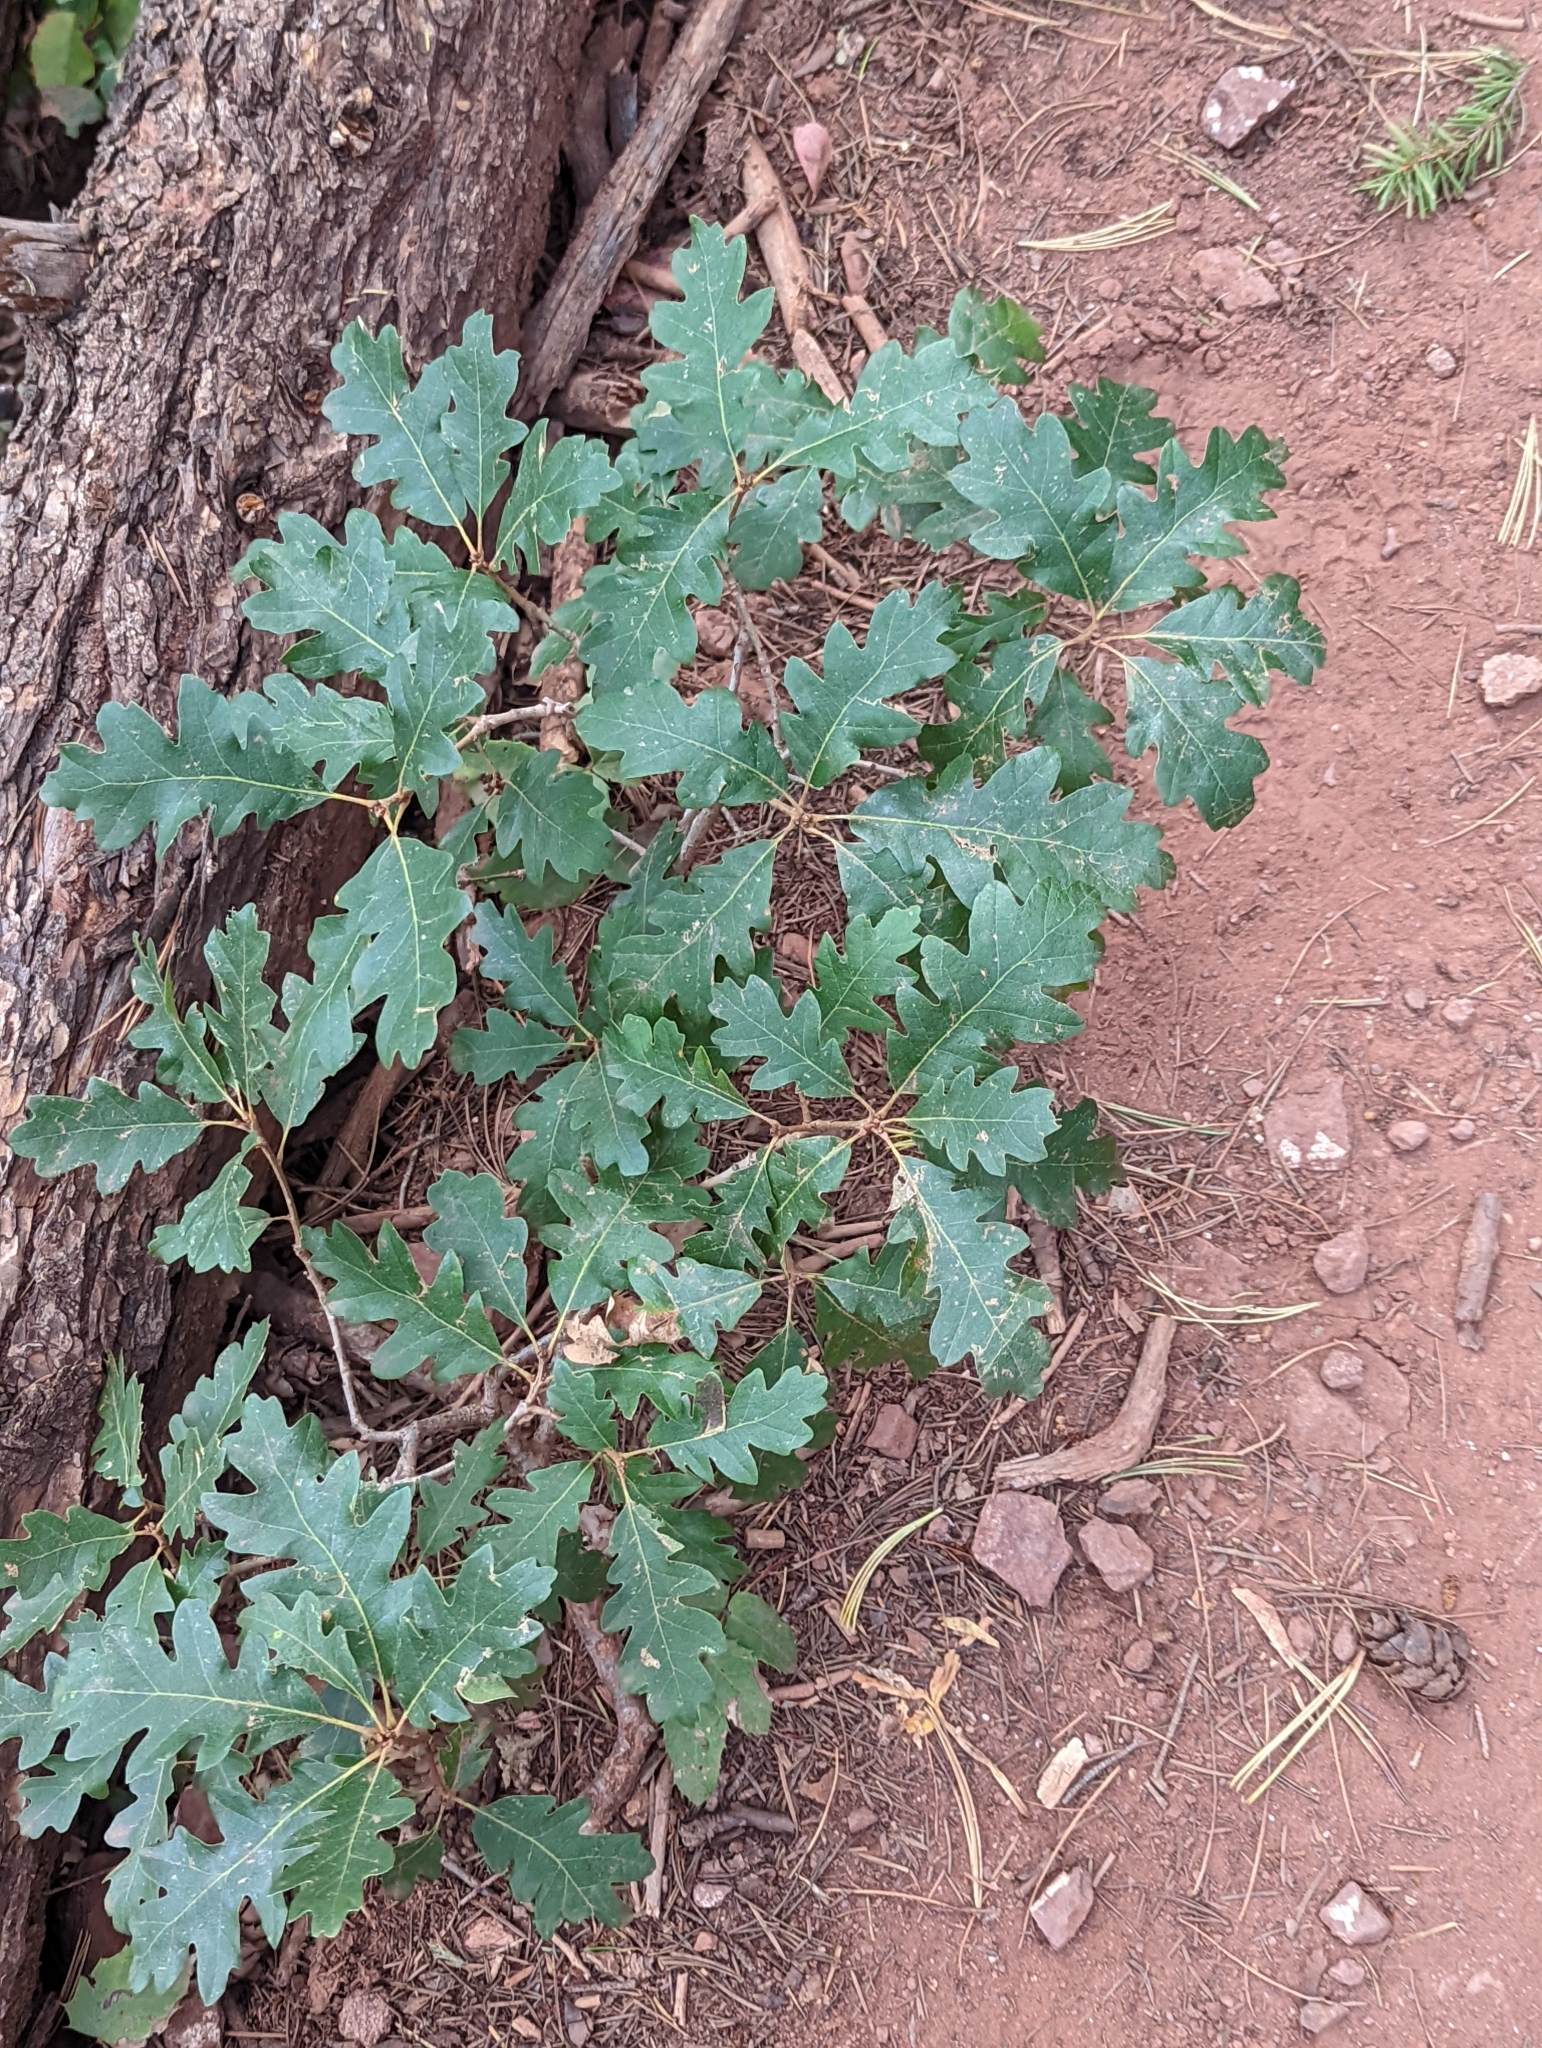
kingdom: Plantae
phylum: Tracheophyta
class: Magnoliopsida
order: Fagales
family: Fagaceae
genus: Quercus
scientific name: Quercus gambelii
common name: Gambel oak
